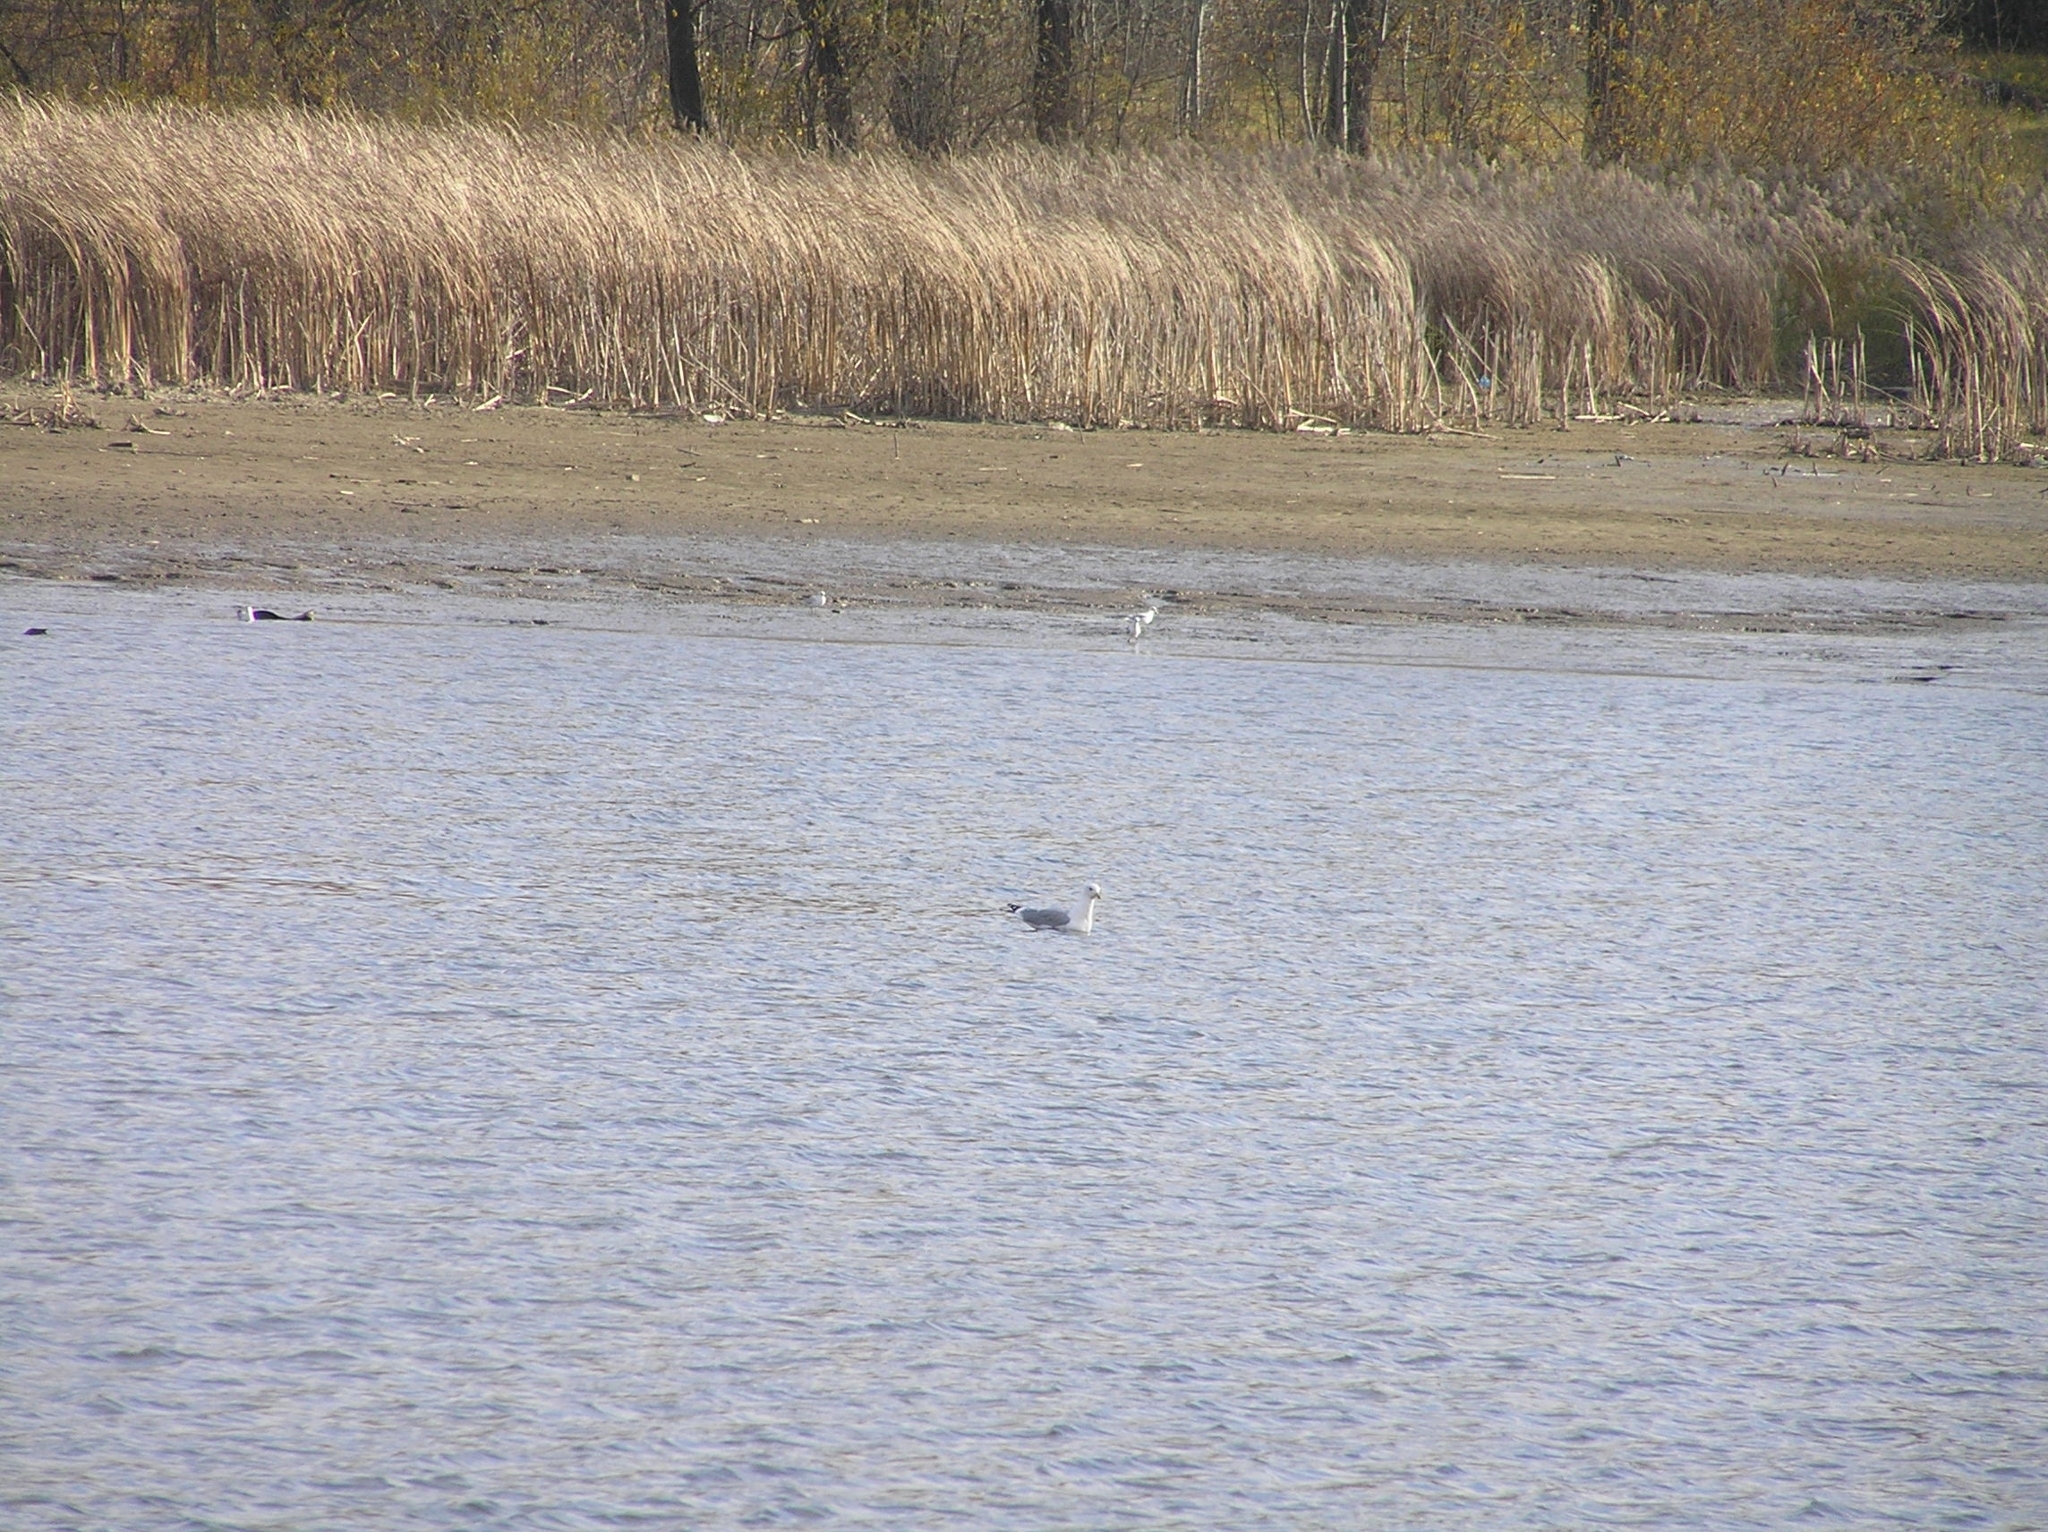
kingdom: Animalia
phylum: Chordata
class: Aves
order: Charadriiformes
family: Laridae
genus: Larus
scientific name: Larus canus
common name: Mew gull
